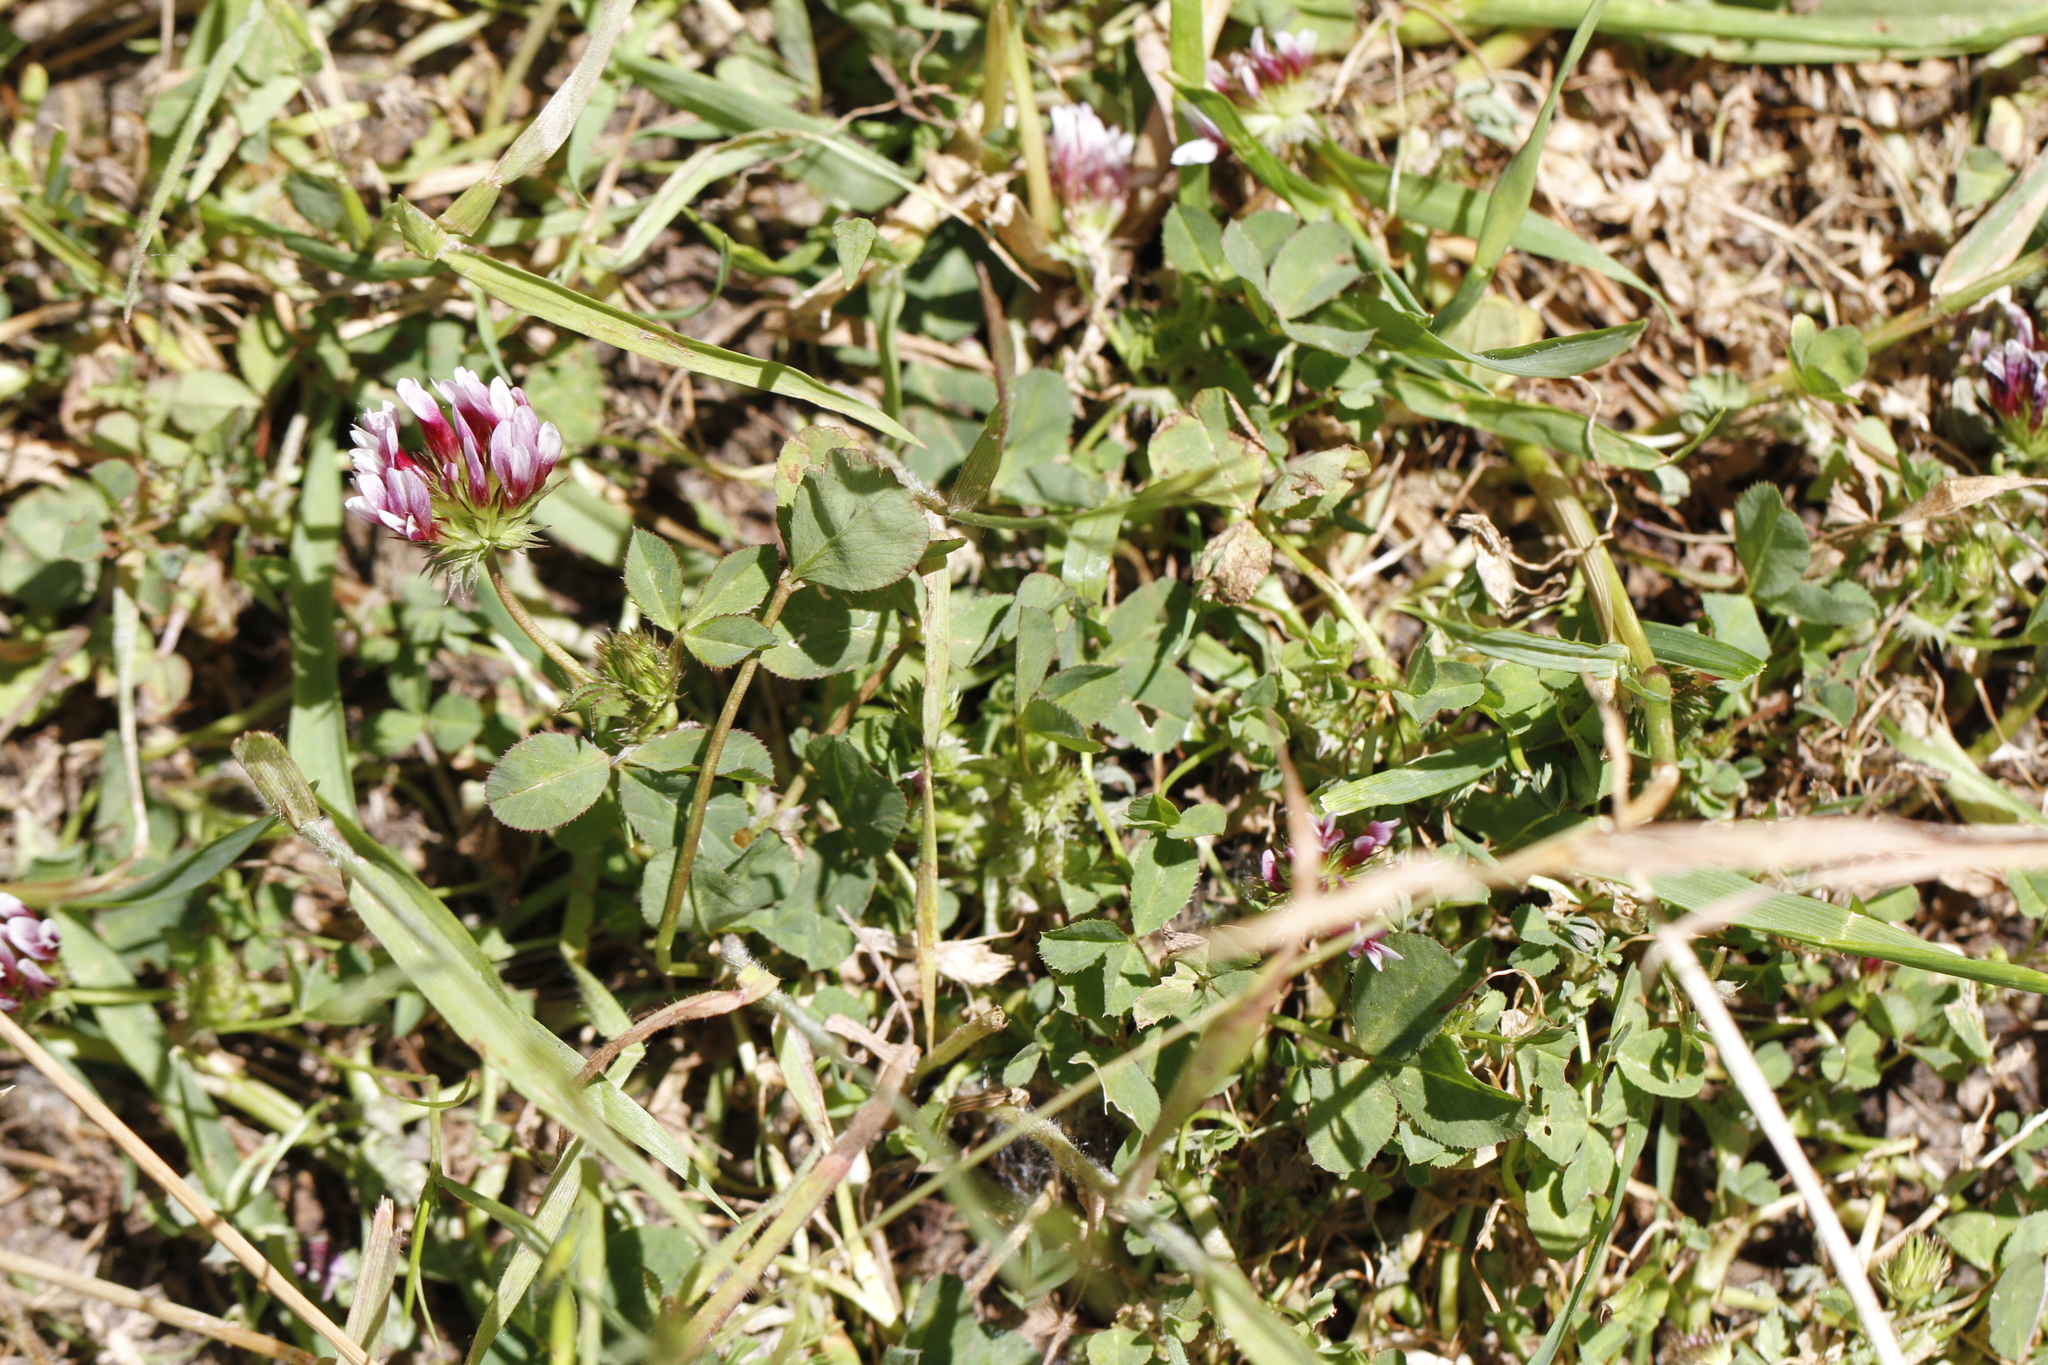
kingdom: Plantae
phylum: Tracheophyta
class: Magnoliopsida
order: Fabales
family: Fabaceae
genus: Trifolium
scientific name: Trifolium variegatum
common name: Whitetip clover
